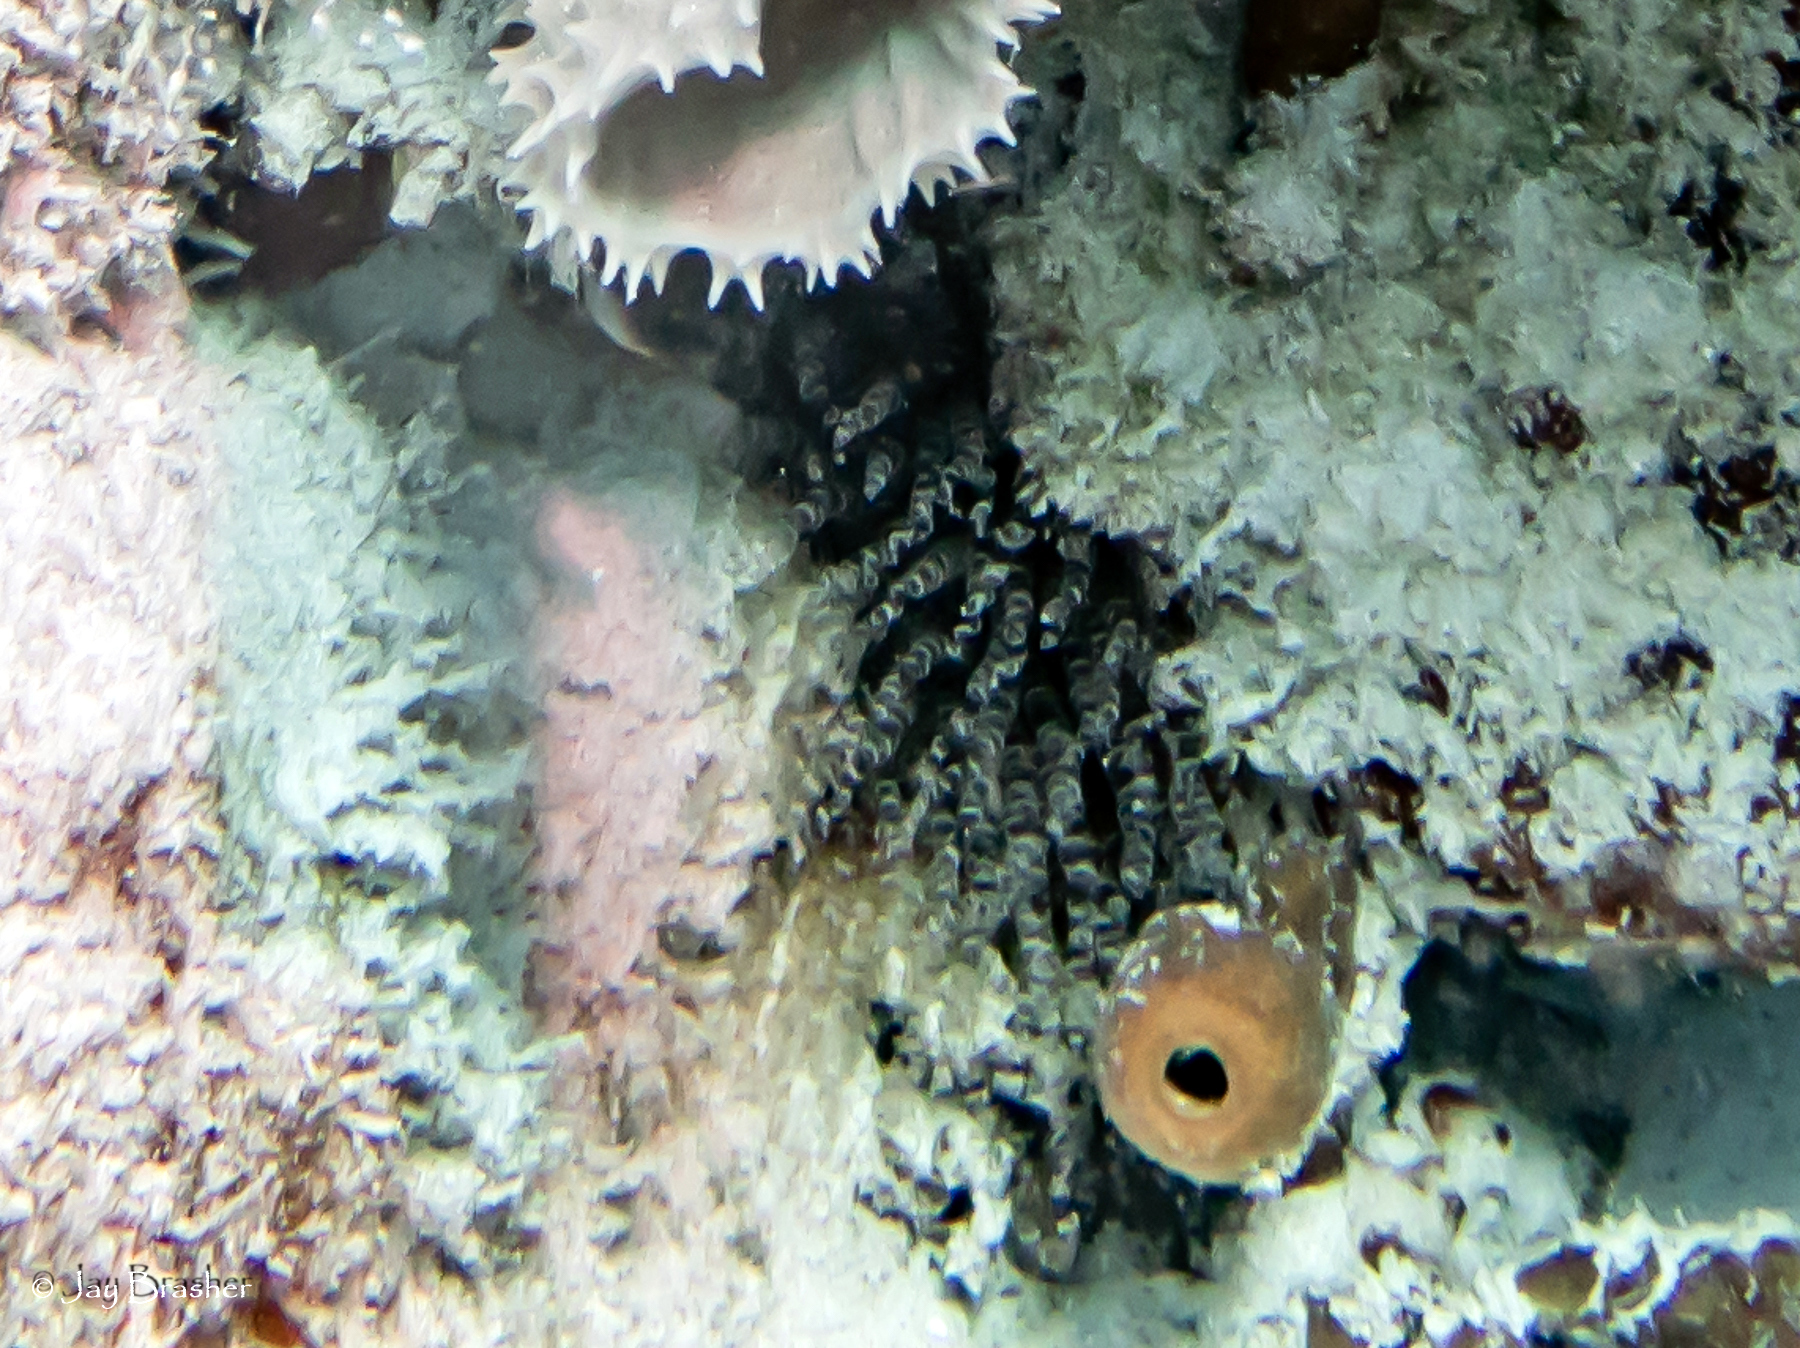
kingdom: Animalia
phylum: Cnidaria
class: Anthozoa
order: Actiniaria
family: Aiptasiidae
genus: Bartholomea
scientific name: Bartholomea annulata
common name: Corkscrew anemone
